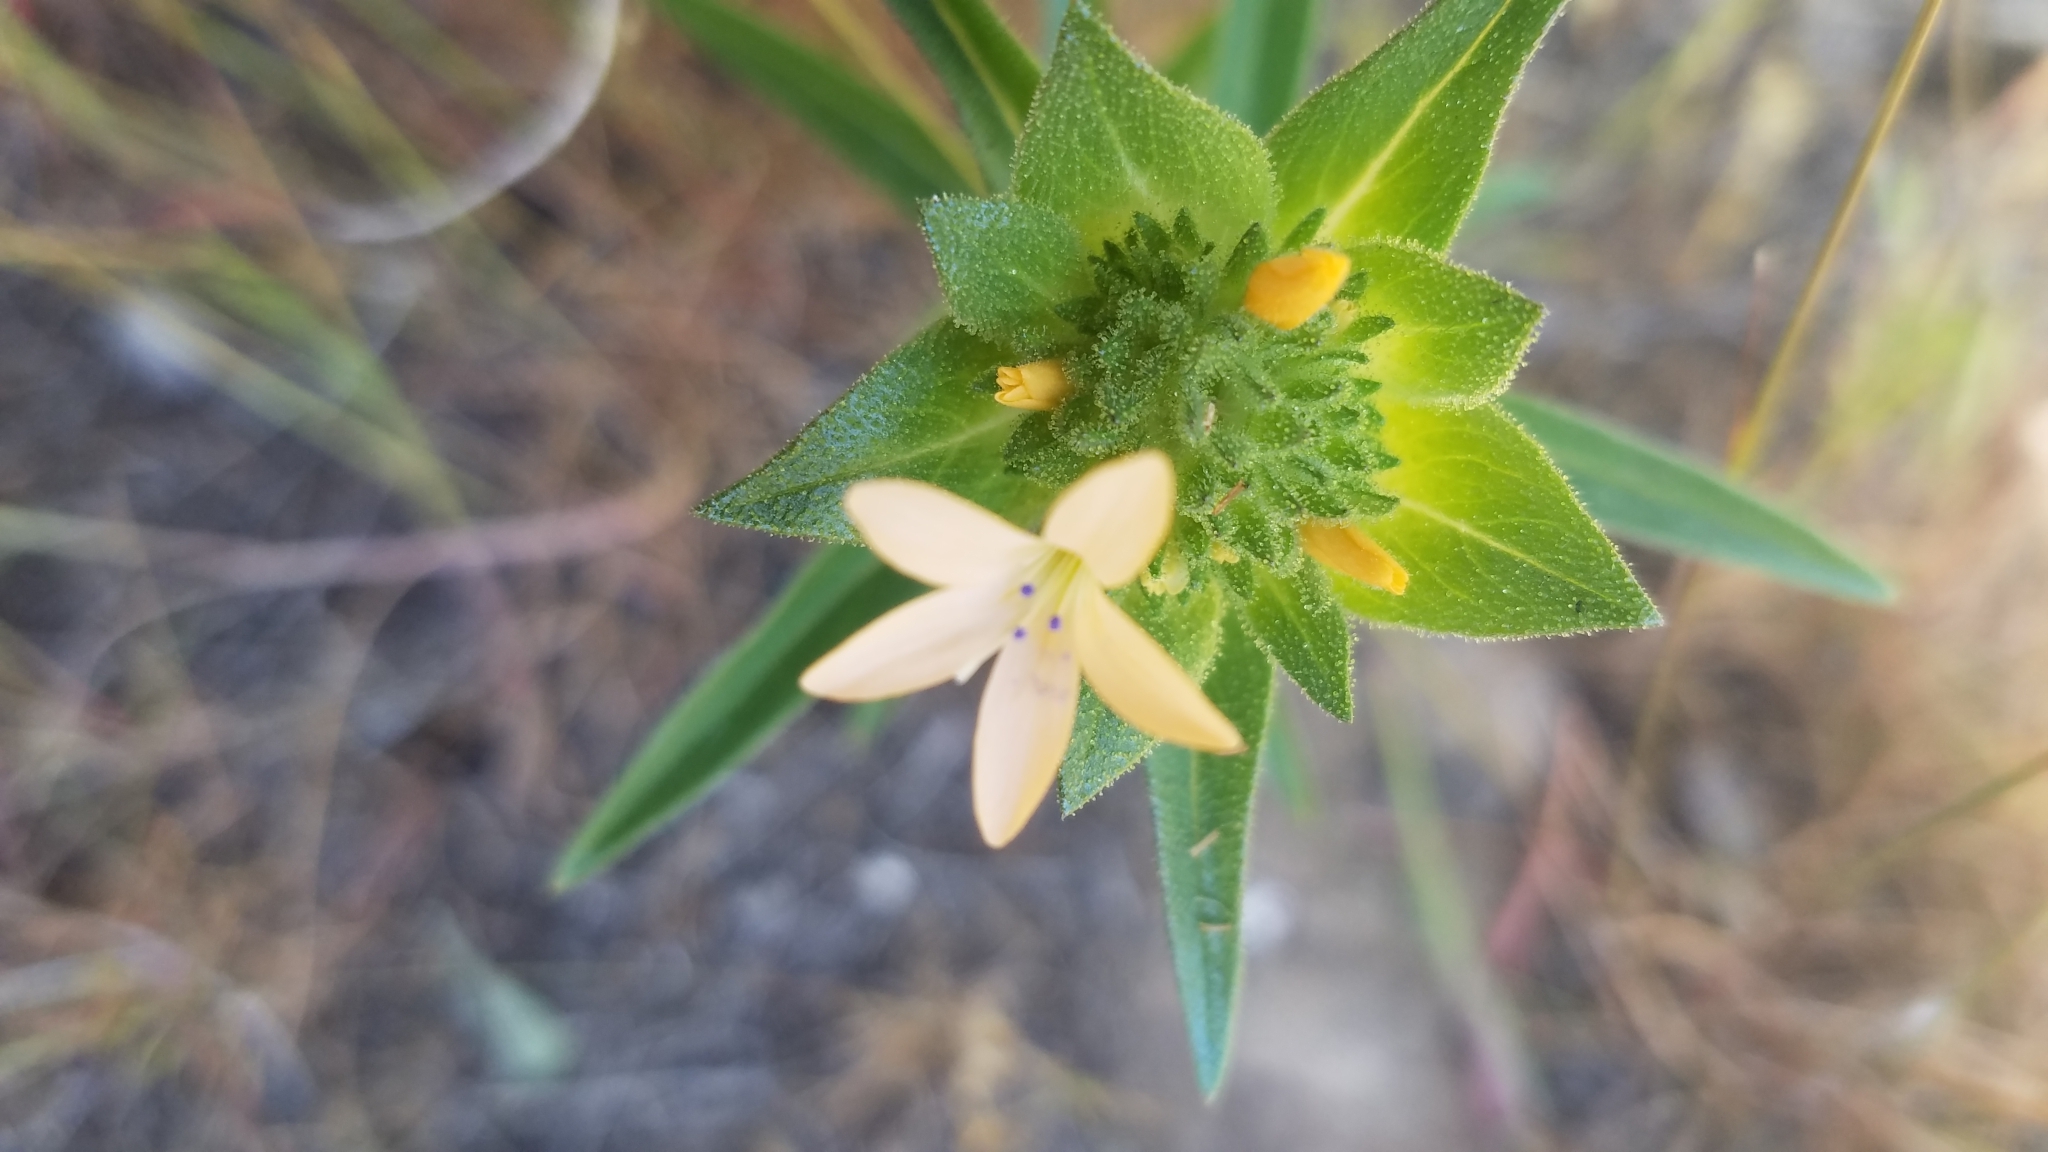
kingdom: Plantae
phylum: Tracheophyta
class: Magnoliopsida
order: Ericales
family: Polemoniaceae
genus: Collomia
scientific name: Collomia grandiflora
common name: California strawflower
